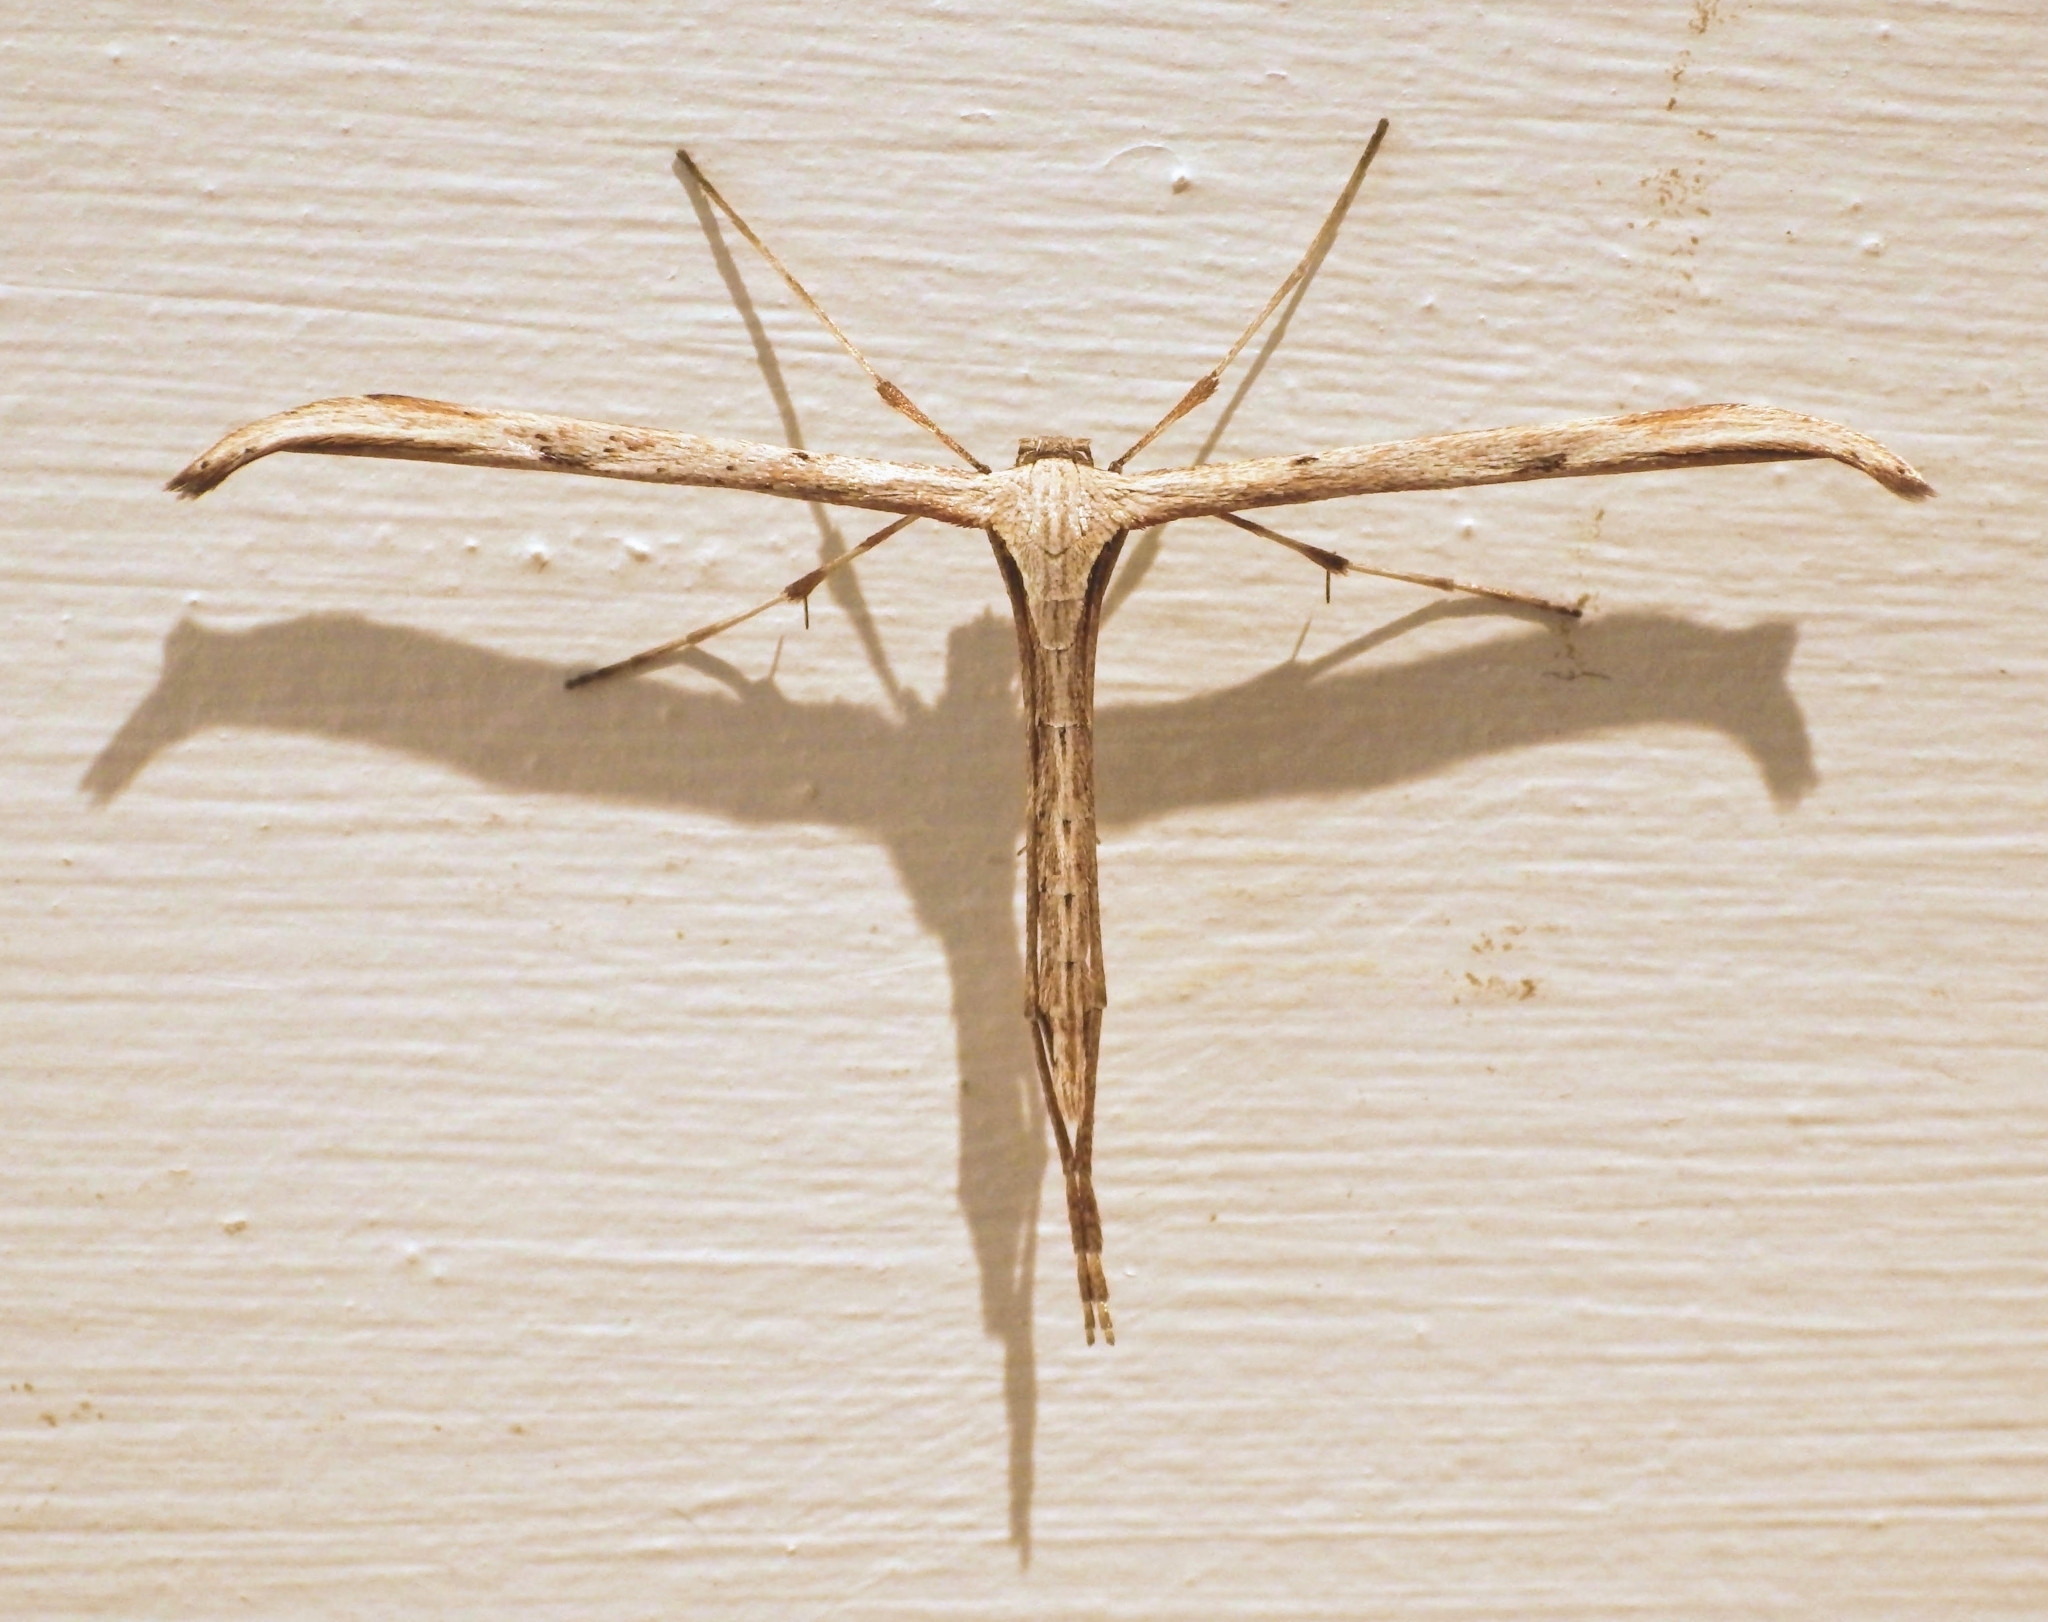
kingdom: Animalia
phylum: Arthropoda
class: Insecta
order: Lepidoptera
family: Pterophoridae
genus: Emmelina
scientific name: Emmelina monodactyla
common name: Common plume
